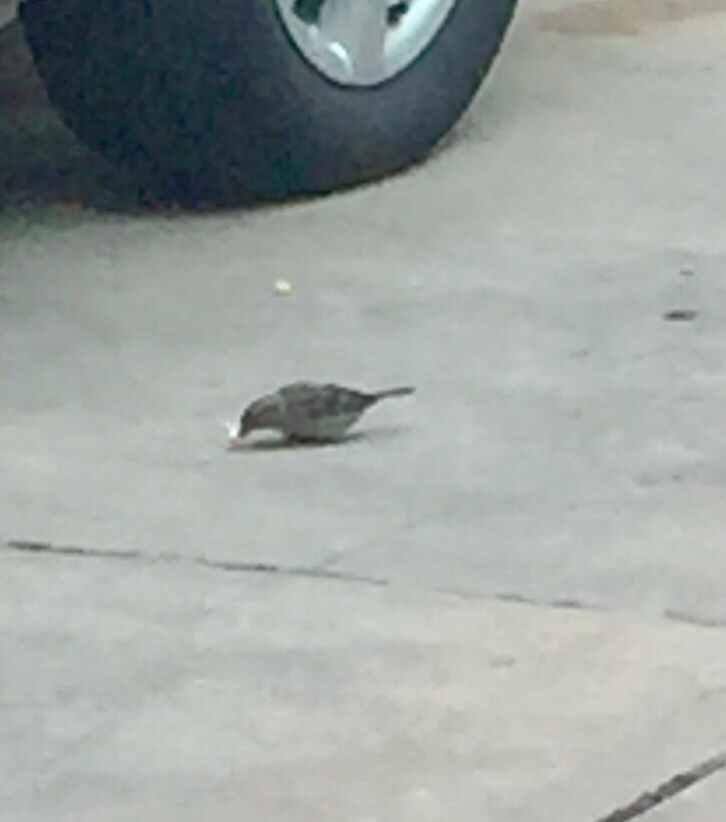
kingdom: Animalia
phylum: Chordata
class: Aves
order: Passeriformes
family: Passeridae
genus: Passer
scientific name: Passer domesticus
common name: House sparrow
